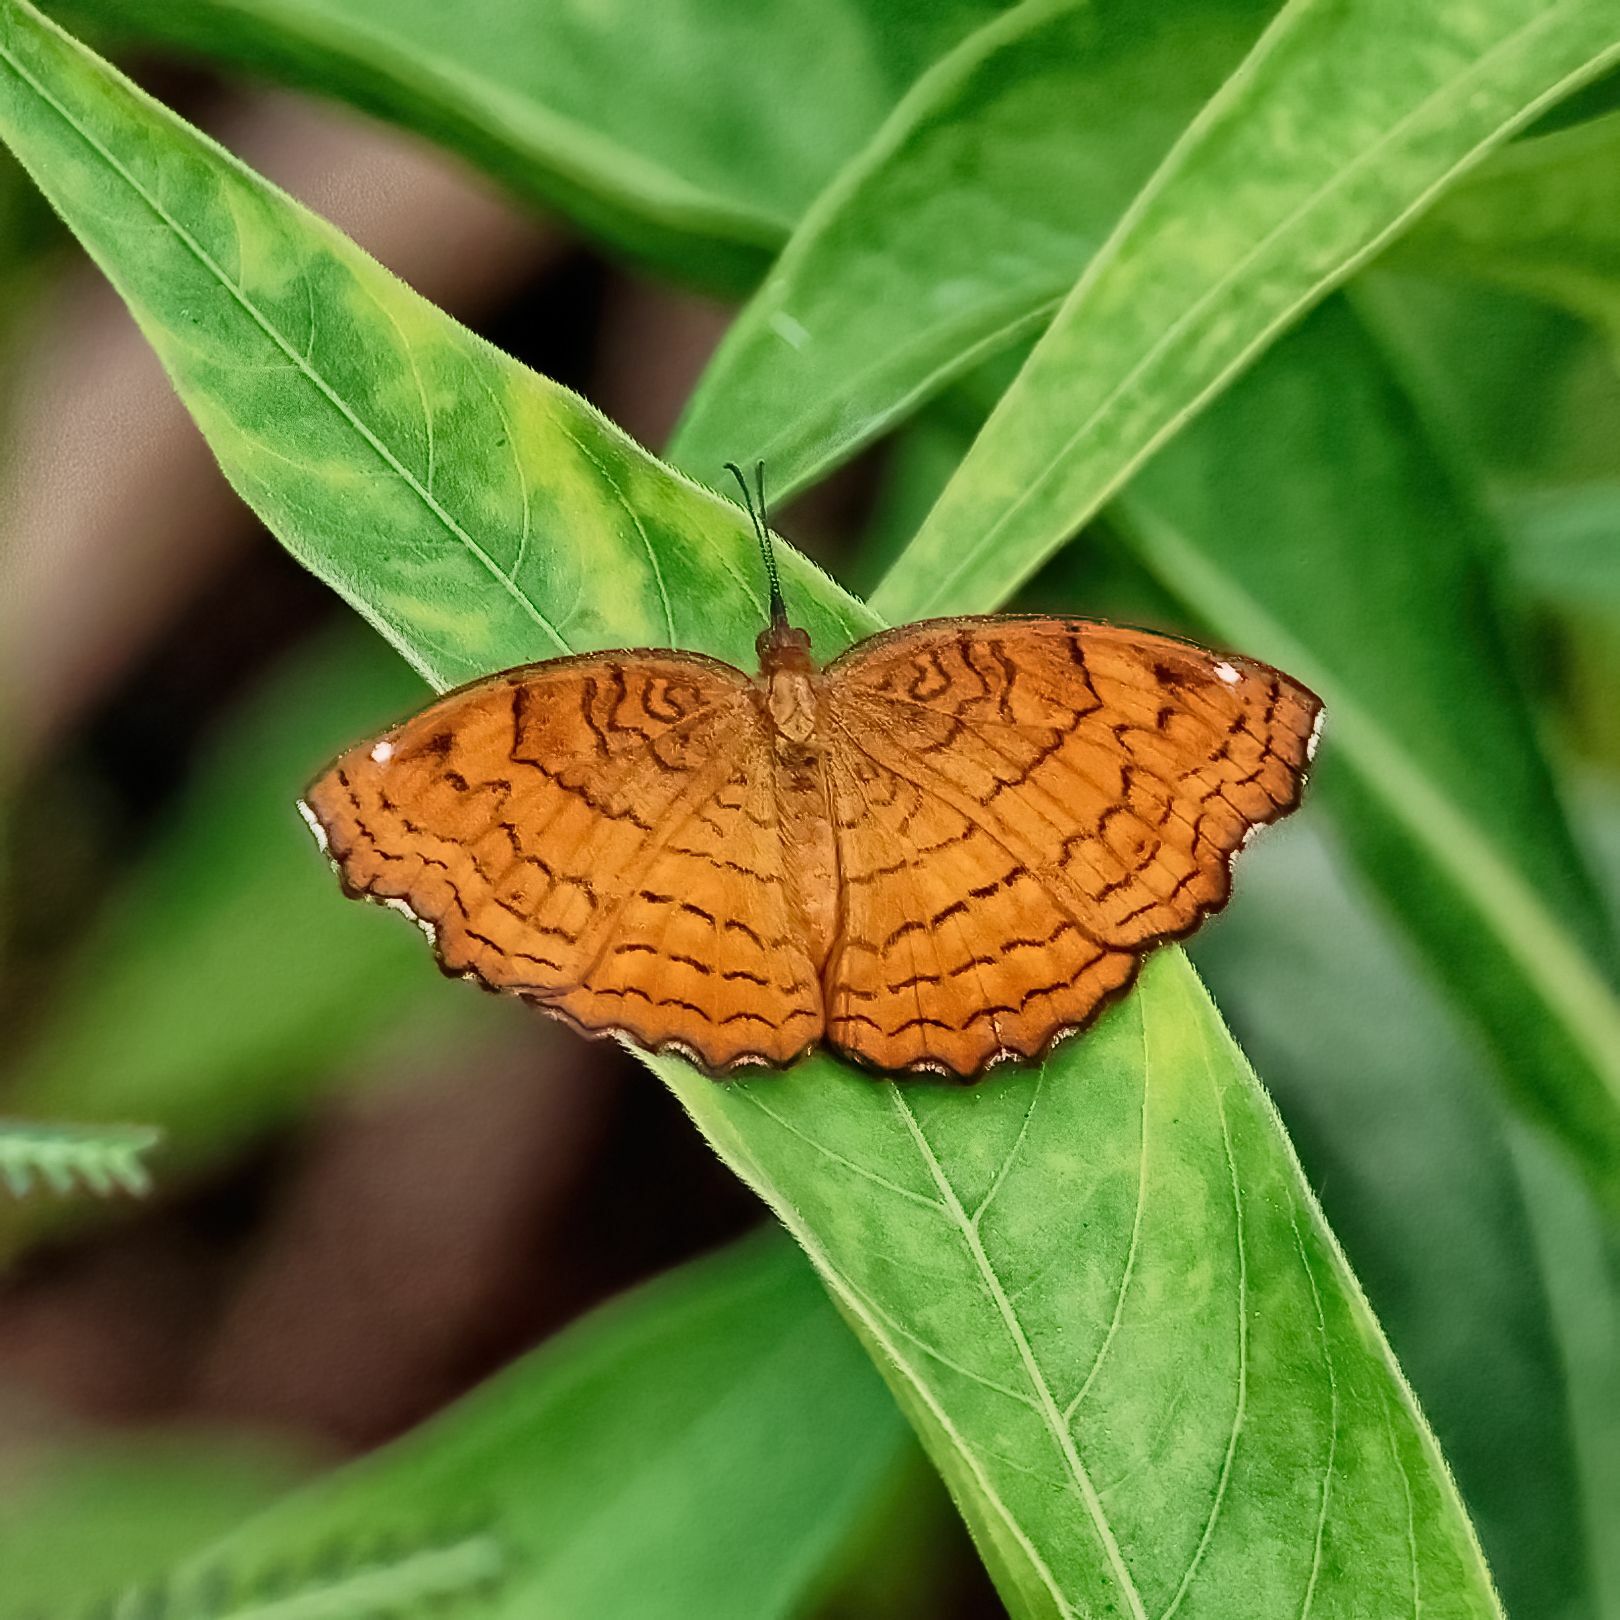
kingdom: Animalia
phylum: Arthropoda
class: Insecta
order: Lepidoptera
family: Nymphalidae
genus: Ariadne
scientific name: Ariadne ariadne
